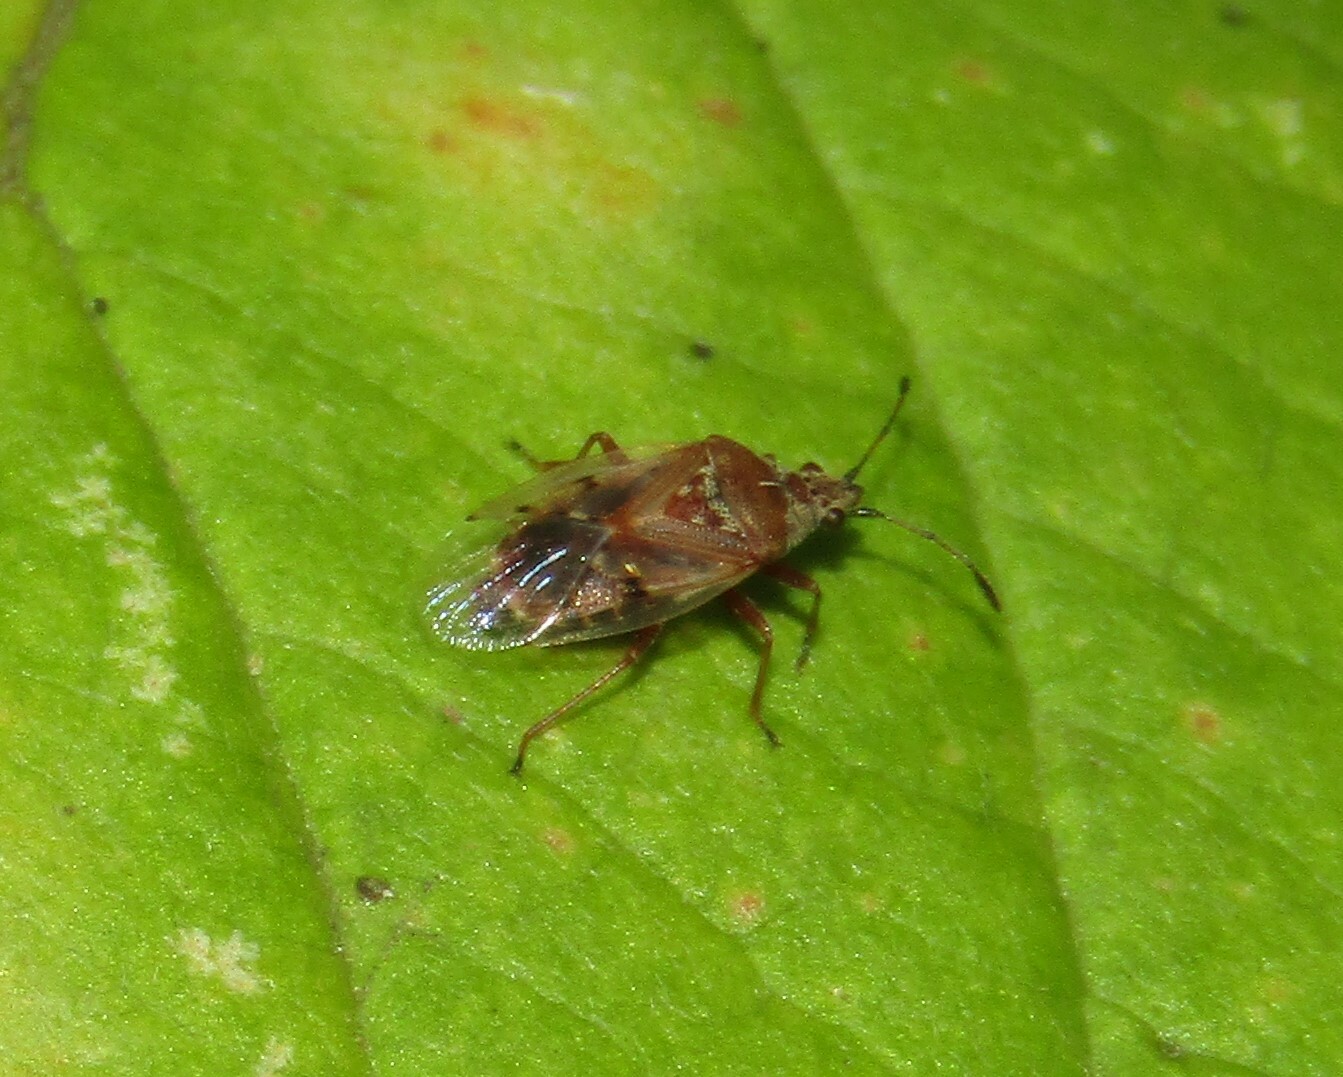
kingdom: Animalia
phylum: Arthropoda
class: Insecta
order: Hemiptera
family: Lygaeidae
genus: Kleidocerys
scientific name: Kleidocerys resedae
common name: Birch catkin bug
